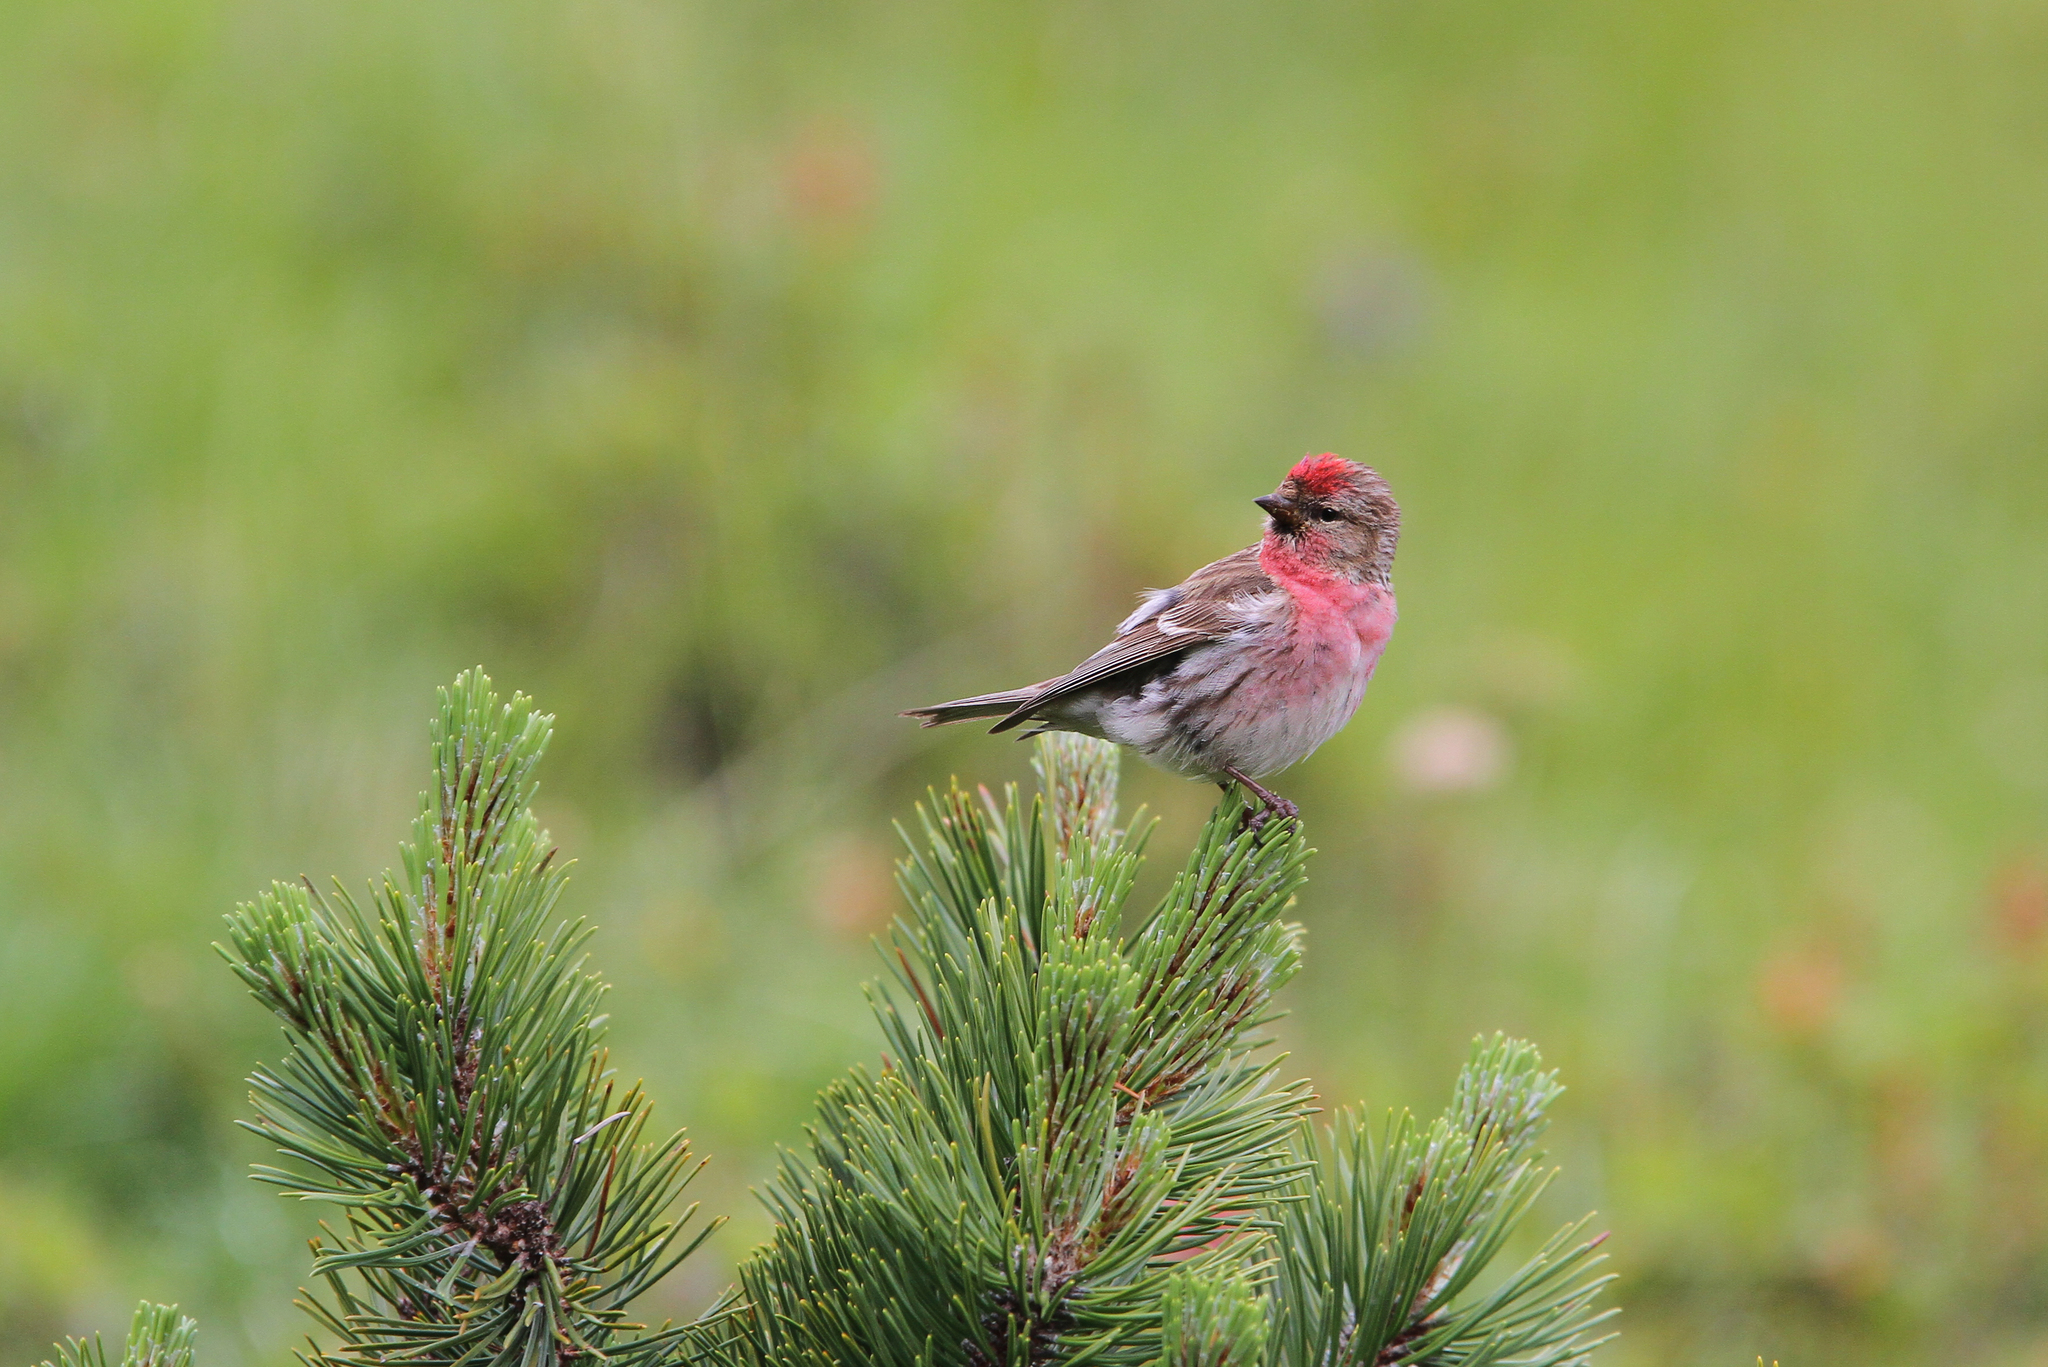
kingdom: Animalia
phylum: Chordata
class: Aves
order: Passeriformes
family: Fringillidae
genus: Acanthis
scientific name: Acanthis flammea
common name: Common redpoll
